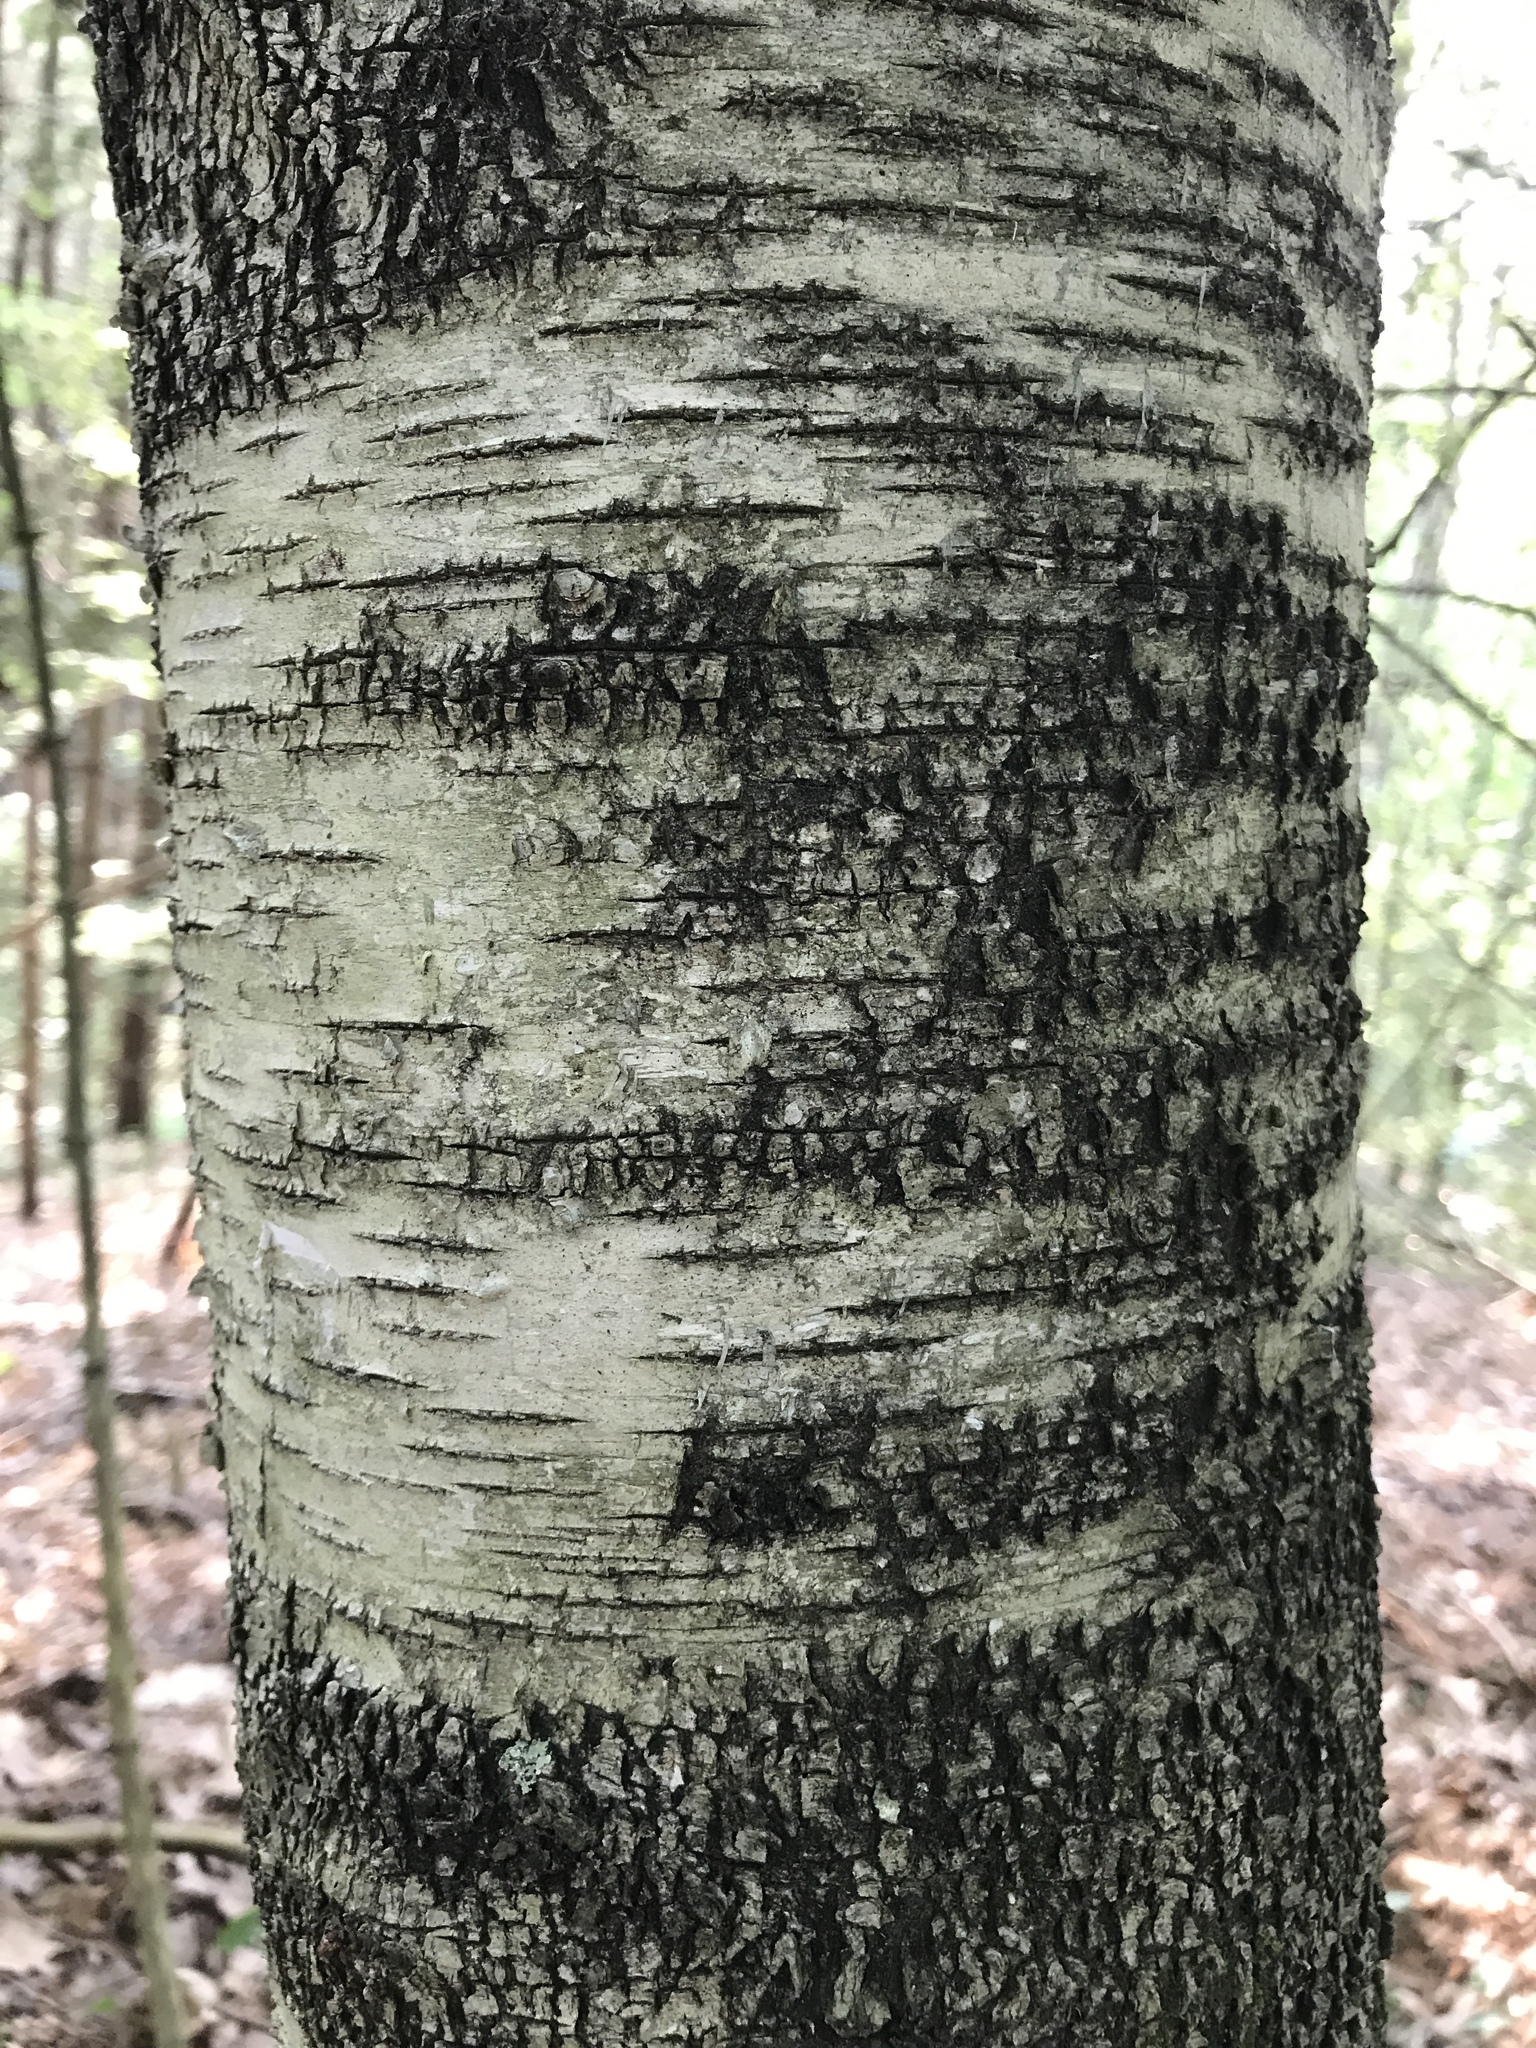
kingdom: Plantae
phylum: Tracheophyta
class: Magnoliopsida
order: Fagales
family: Betulaceae
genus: Betula
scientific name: Betula populifolia
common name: Fire birch
